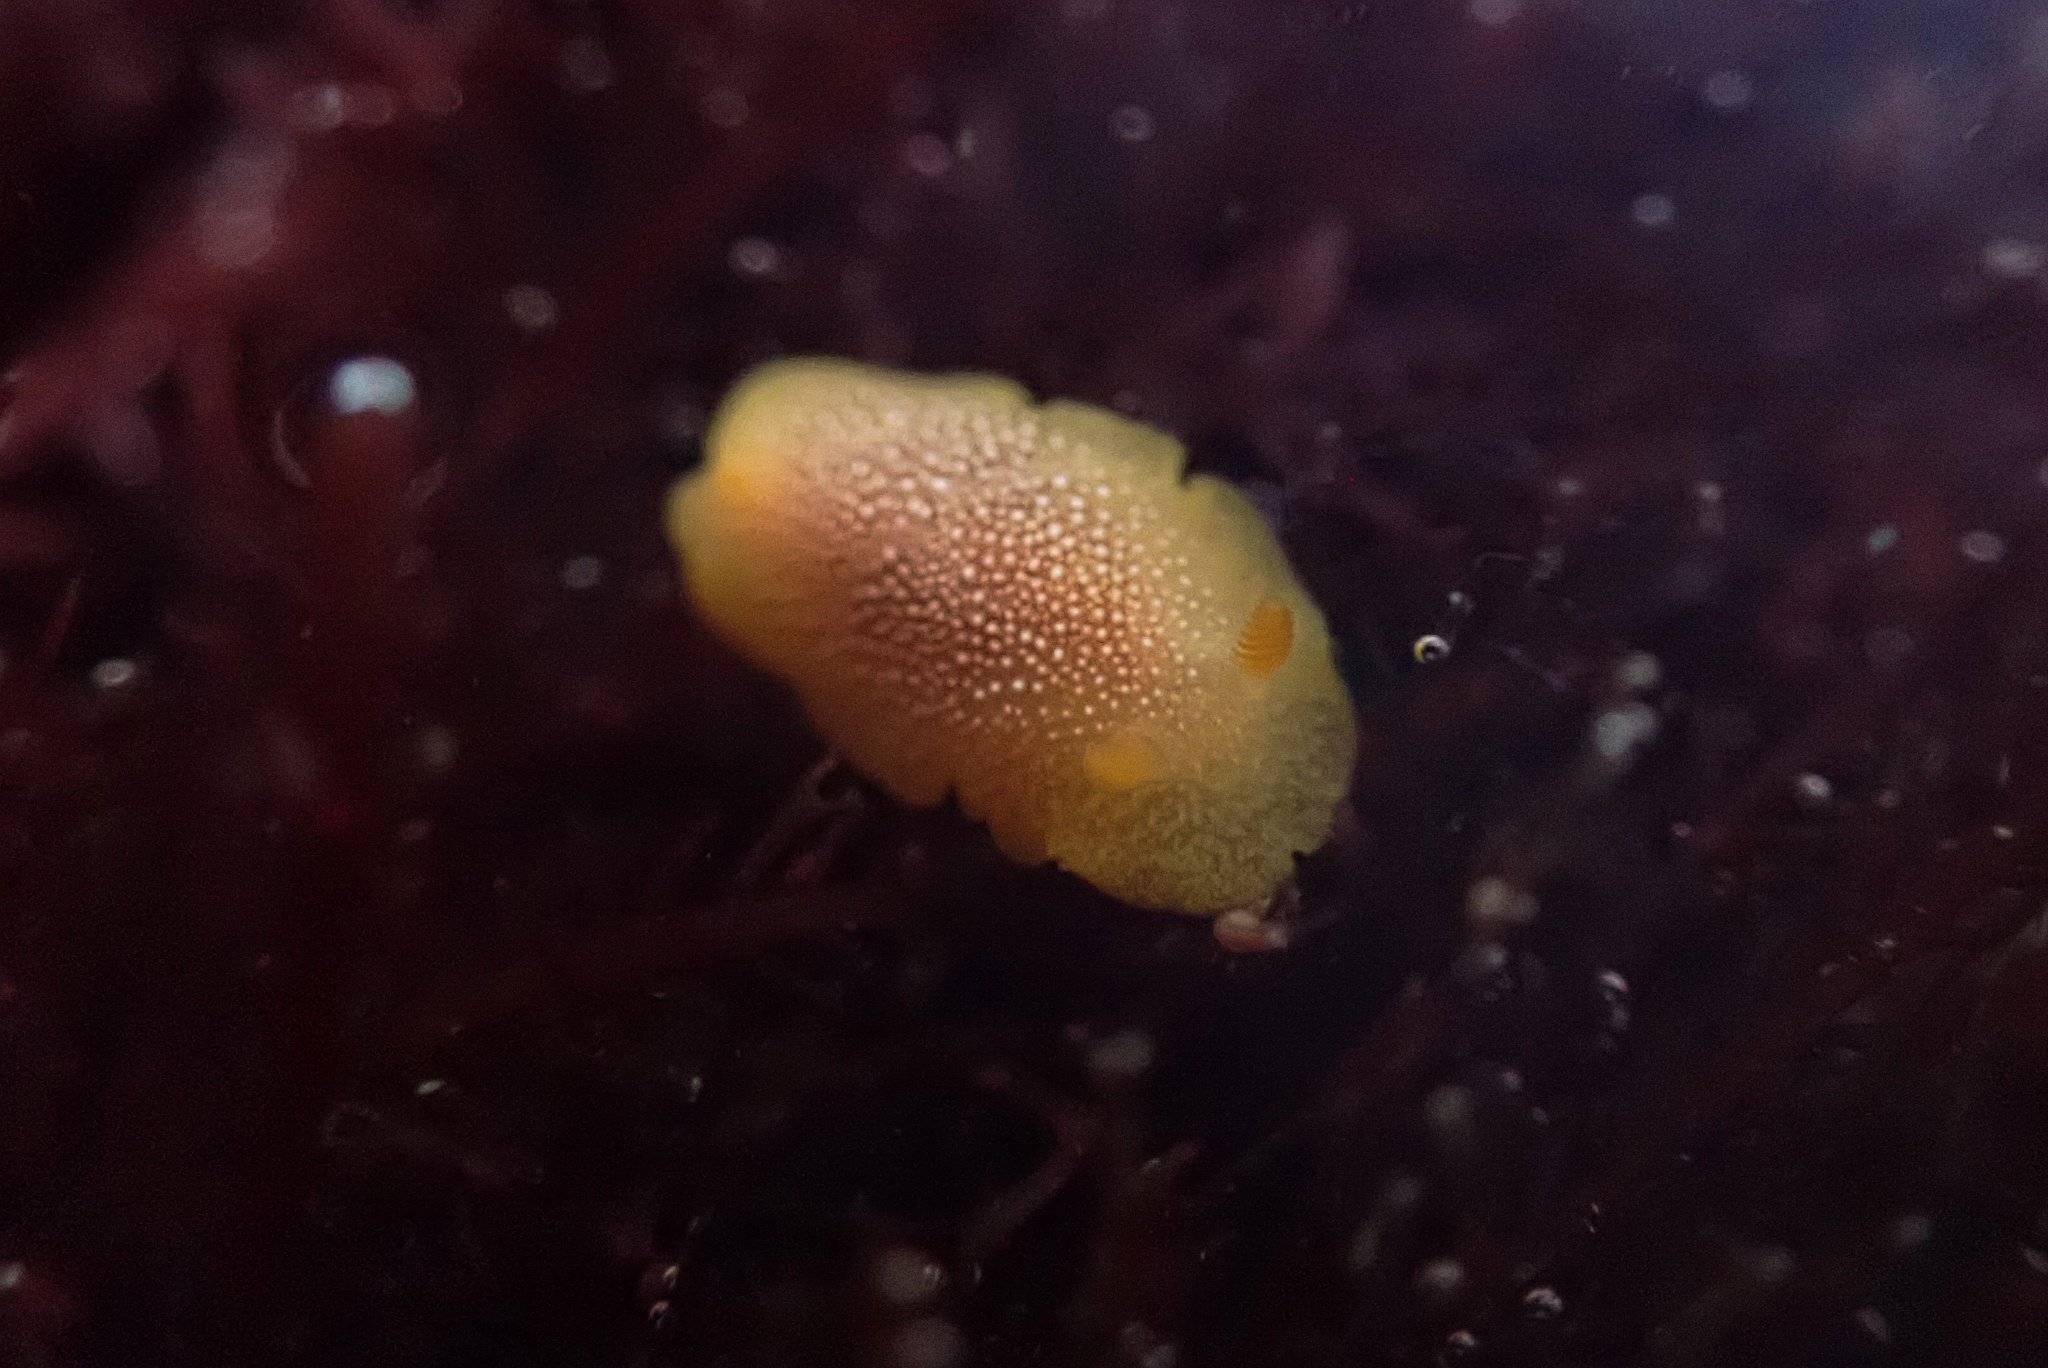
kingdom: Animalia
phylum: Mollusca
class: Gastropoda
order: Nudibranchia
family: Dendrodorididae
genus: Doriopsilla
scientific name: Doriopsilla gemela
